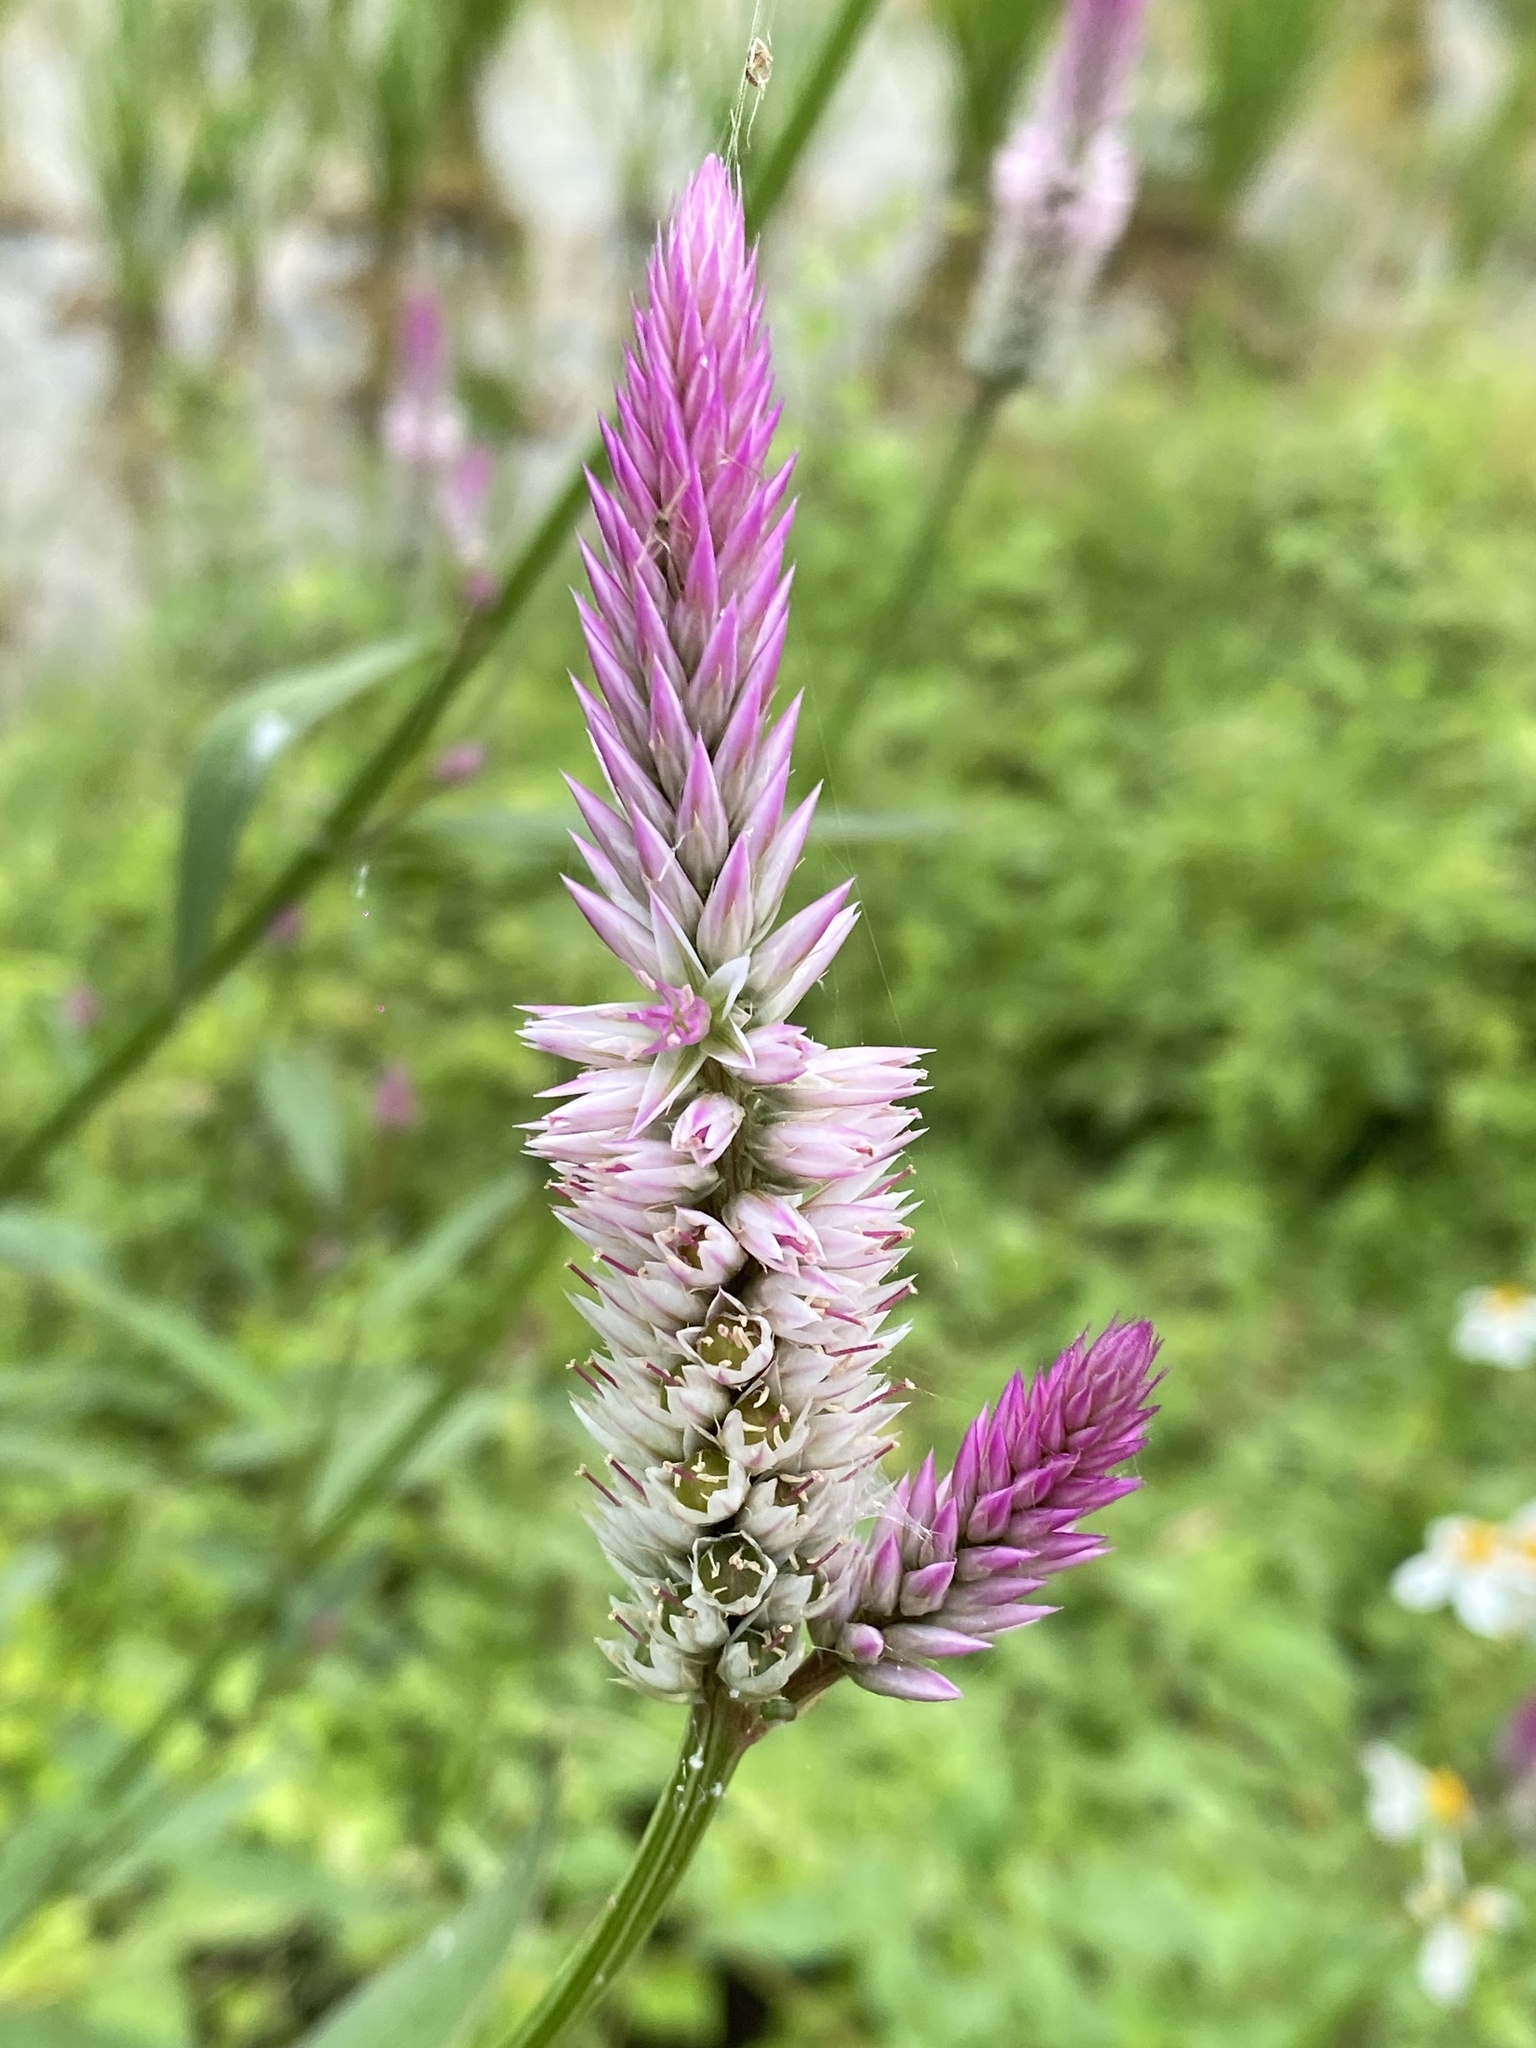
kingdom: Plantae
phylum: Tracheophyta
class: Magnoliopsida
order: Caryophyllales
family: Amaranthaceae
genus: Celosia
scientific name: Celosia argentea
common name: Feather cockscomb
